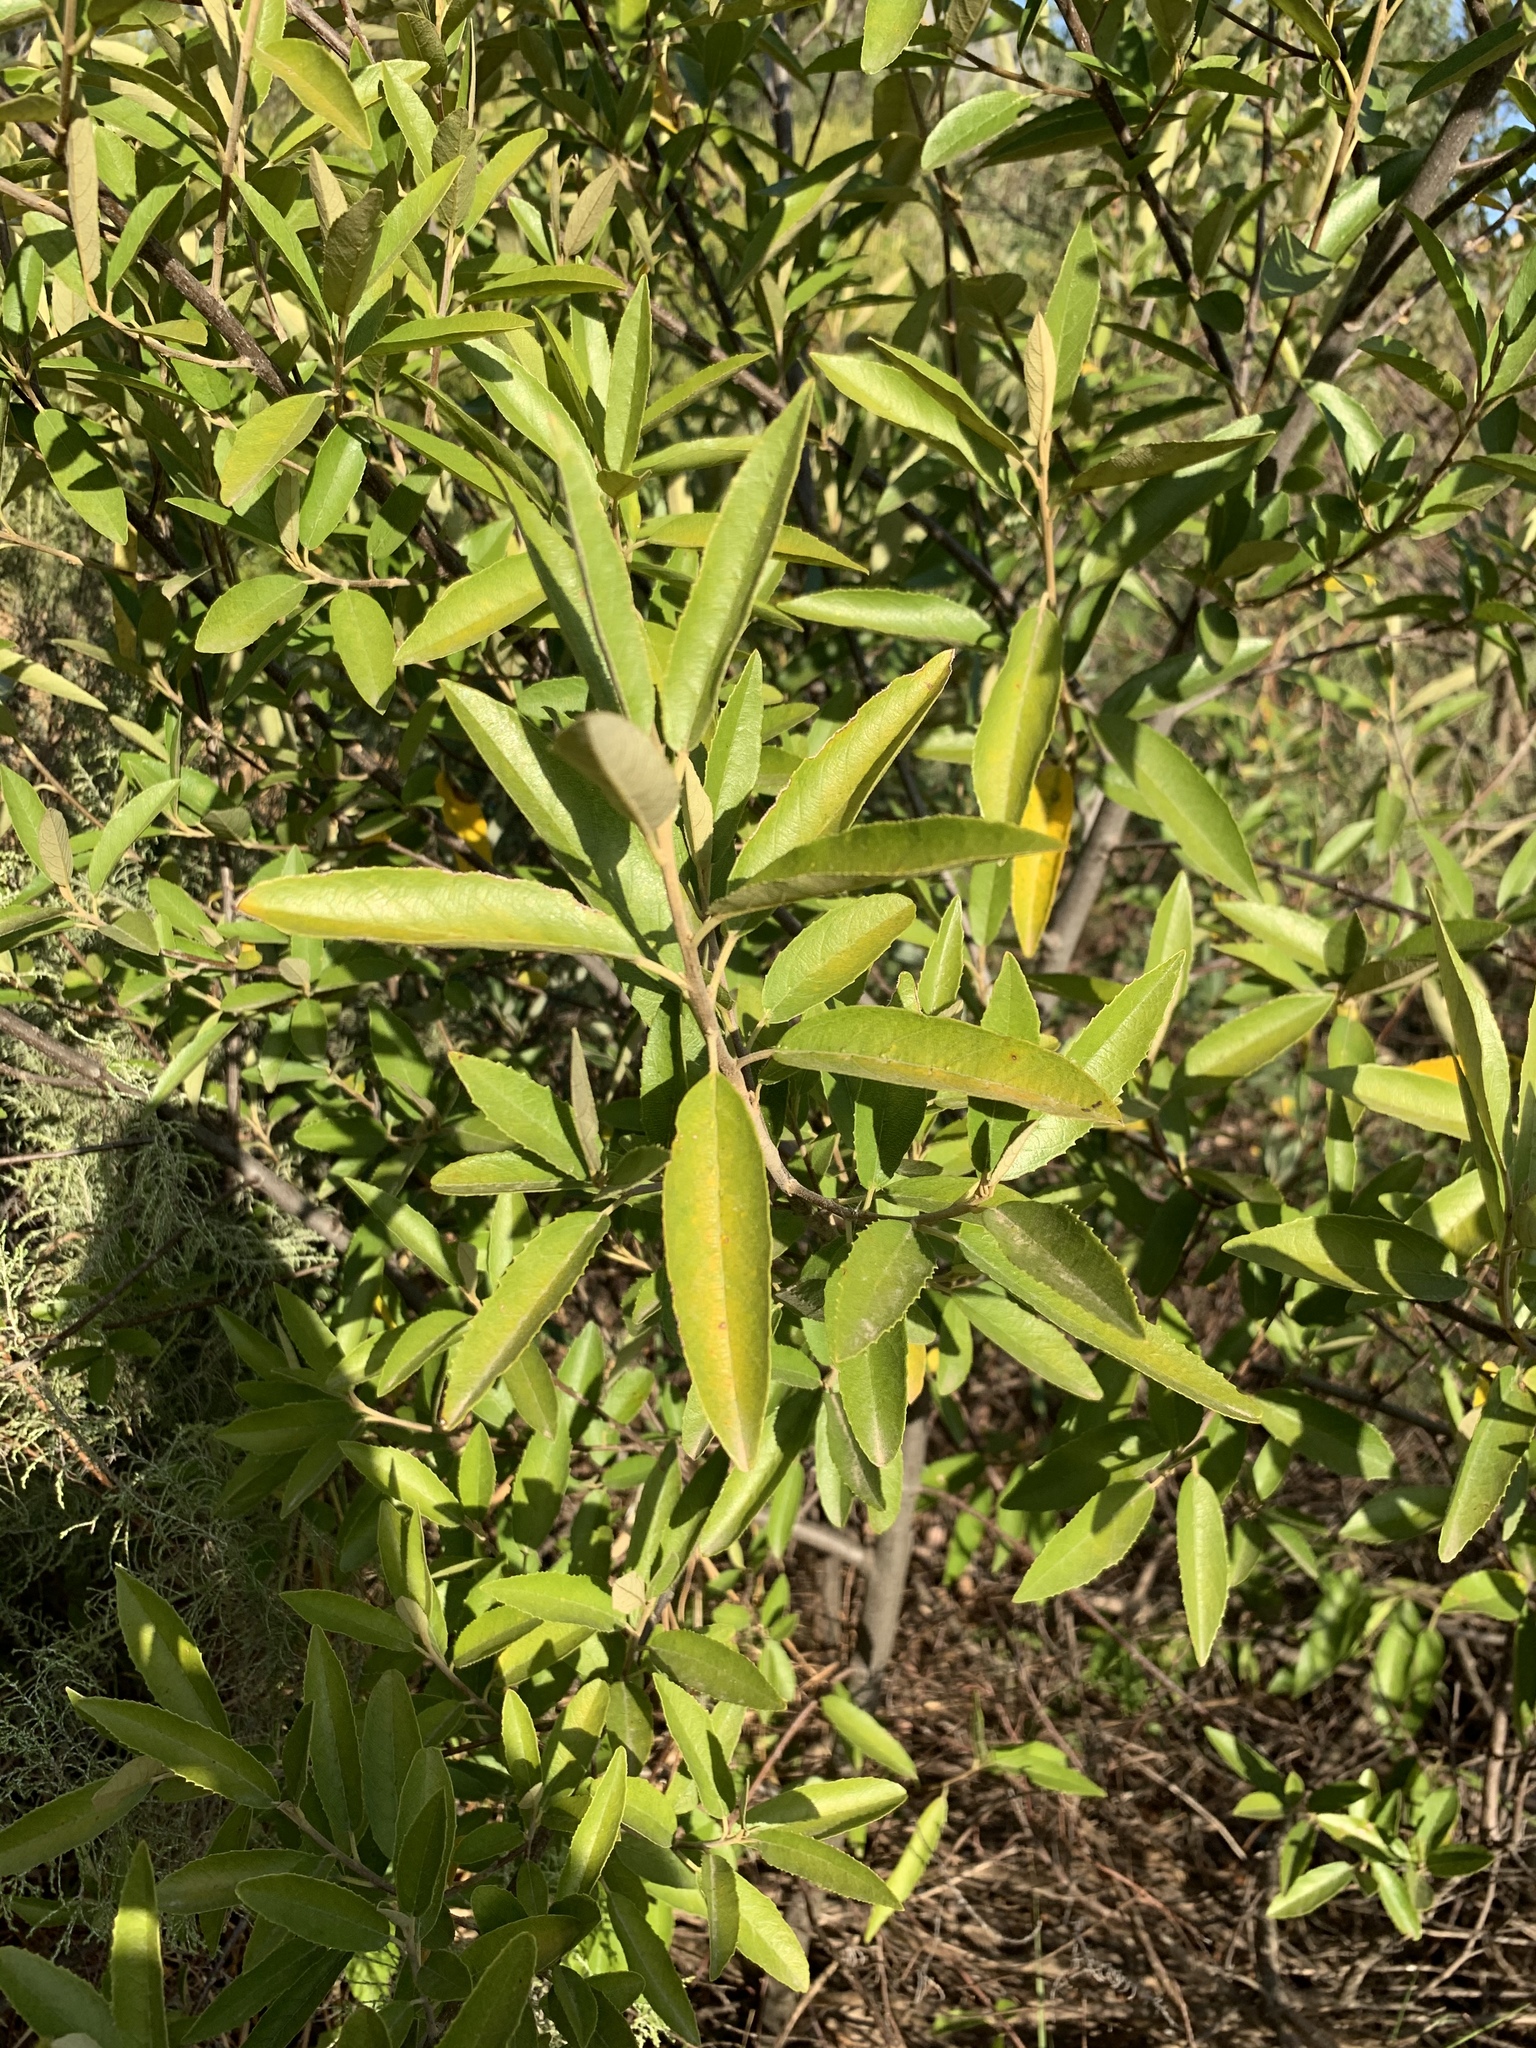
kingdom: Plantae
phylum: Tracheophyta
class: Magnoliopsida
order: Malpighiales
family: Achariaceae
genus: Kiggelaria
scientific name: Kiggelaria africana
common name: Wild peach
